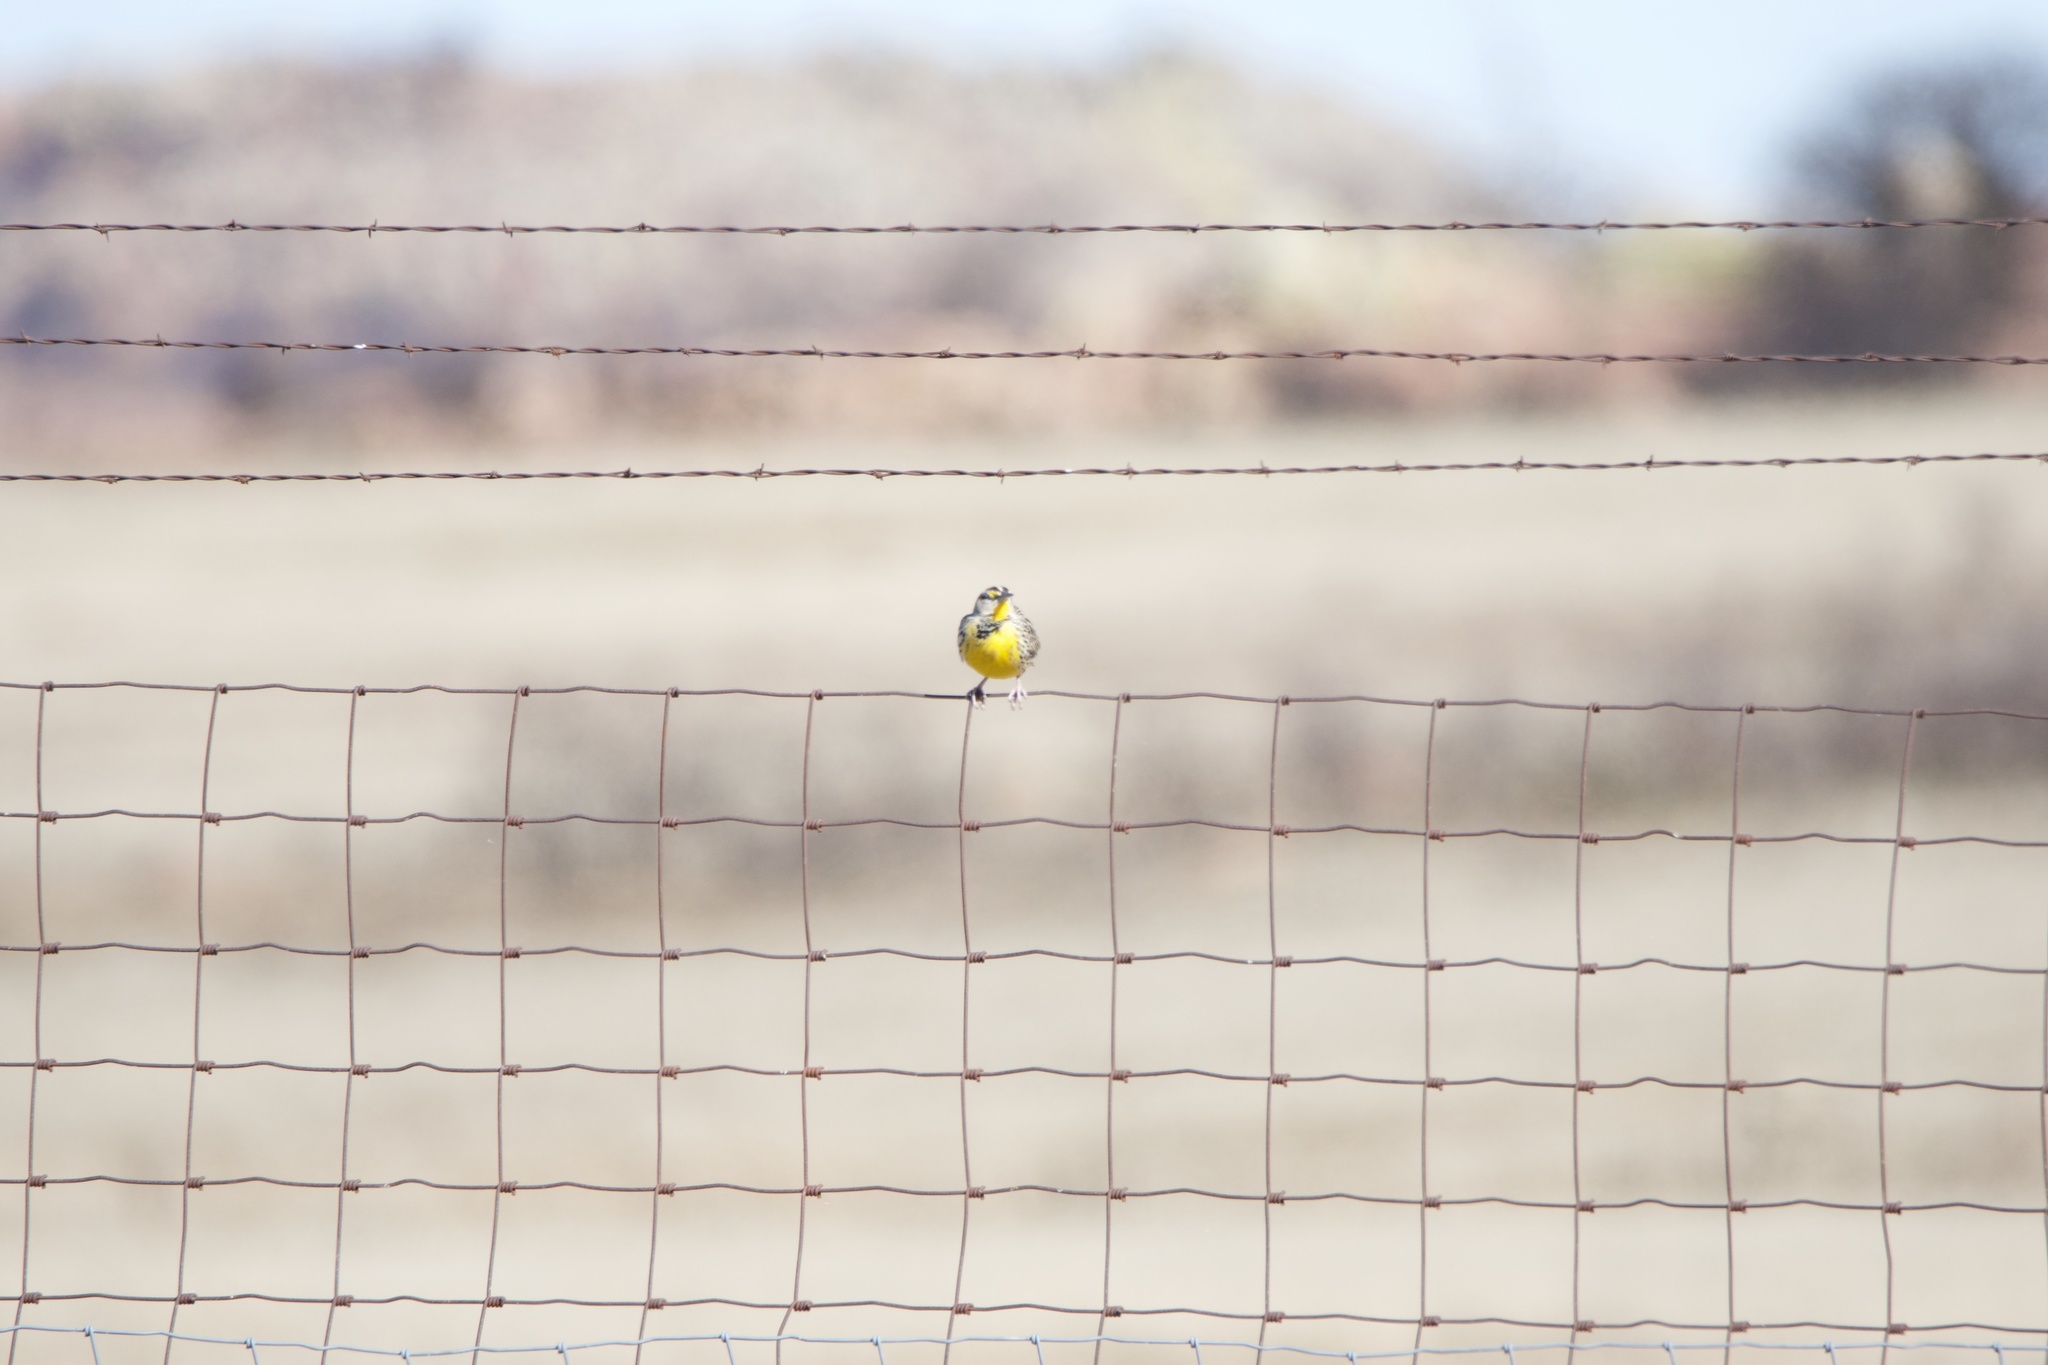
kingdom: Animalia
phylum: Chordata
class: Aves
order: Passeriformes
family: Icteridae
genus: Sturnella
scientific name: Sturnella magna
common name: Eastern meadowlark
